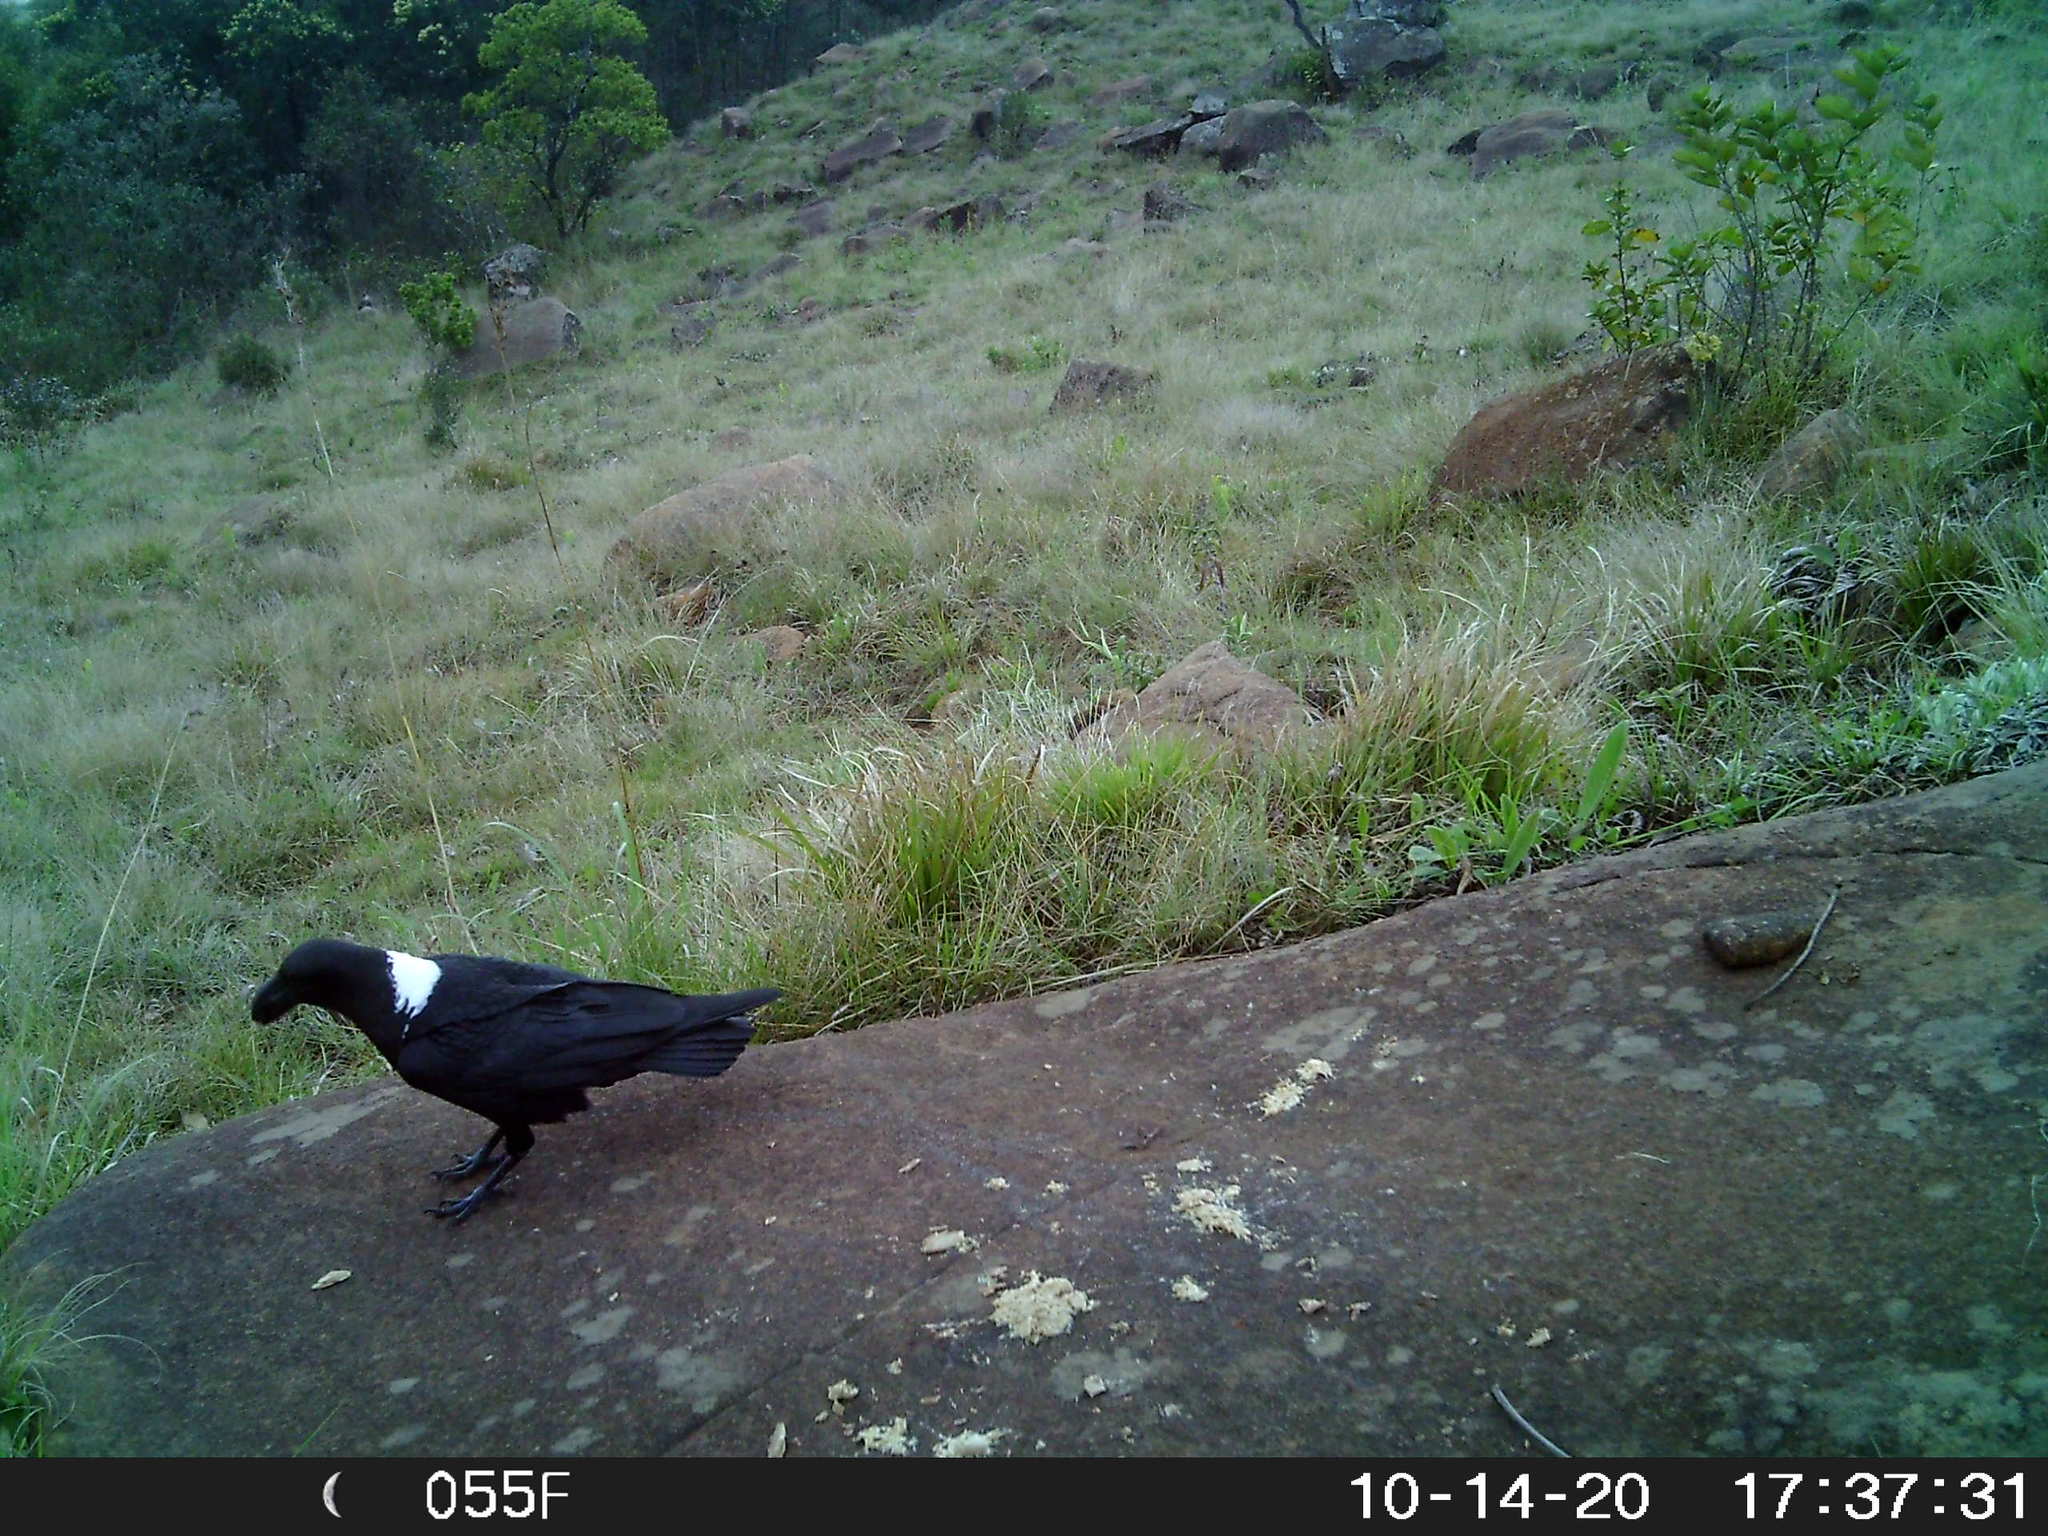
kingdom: Animalia
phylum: Chordata
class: Aves
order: Passeriformes
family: Corvidae
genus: Corvus
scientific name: Corvus albicollis
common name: White-necked raven
